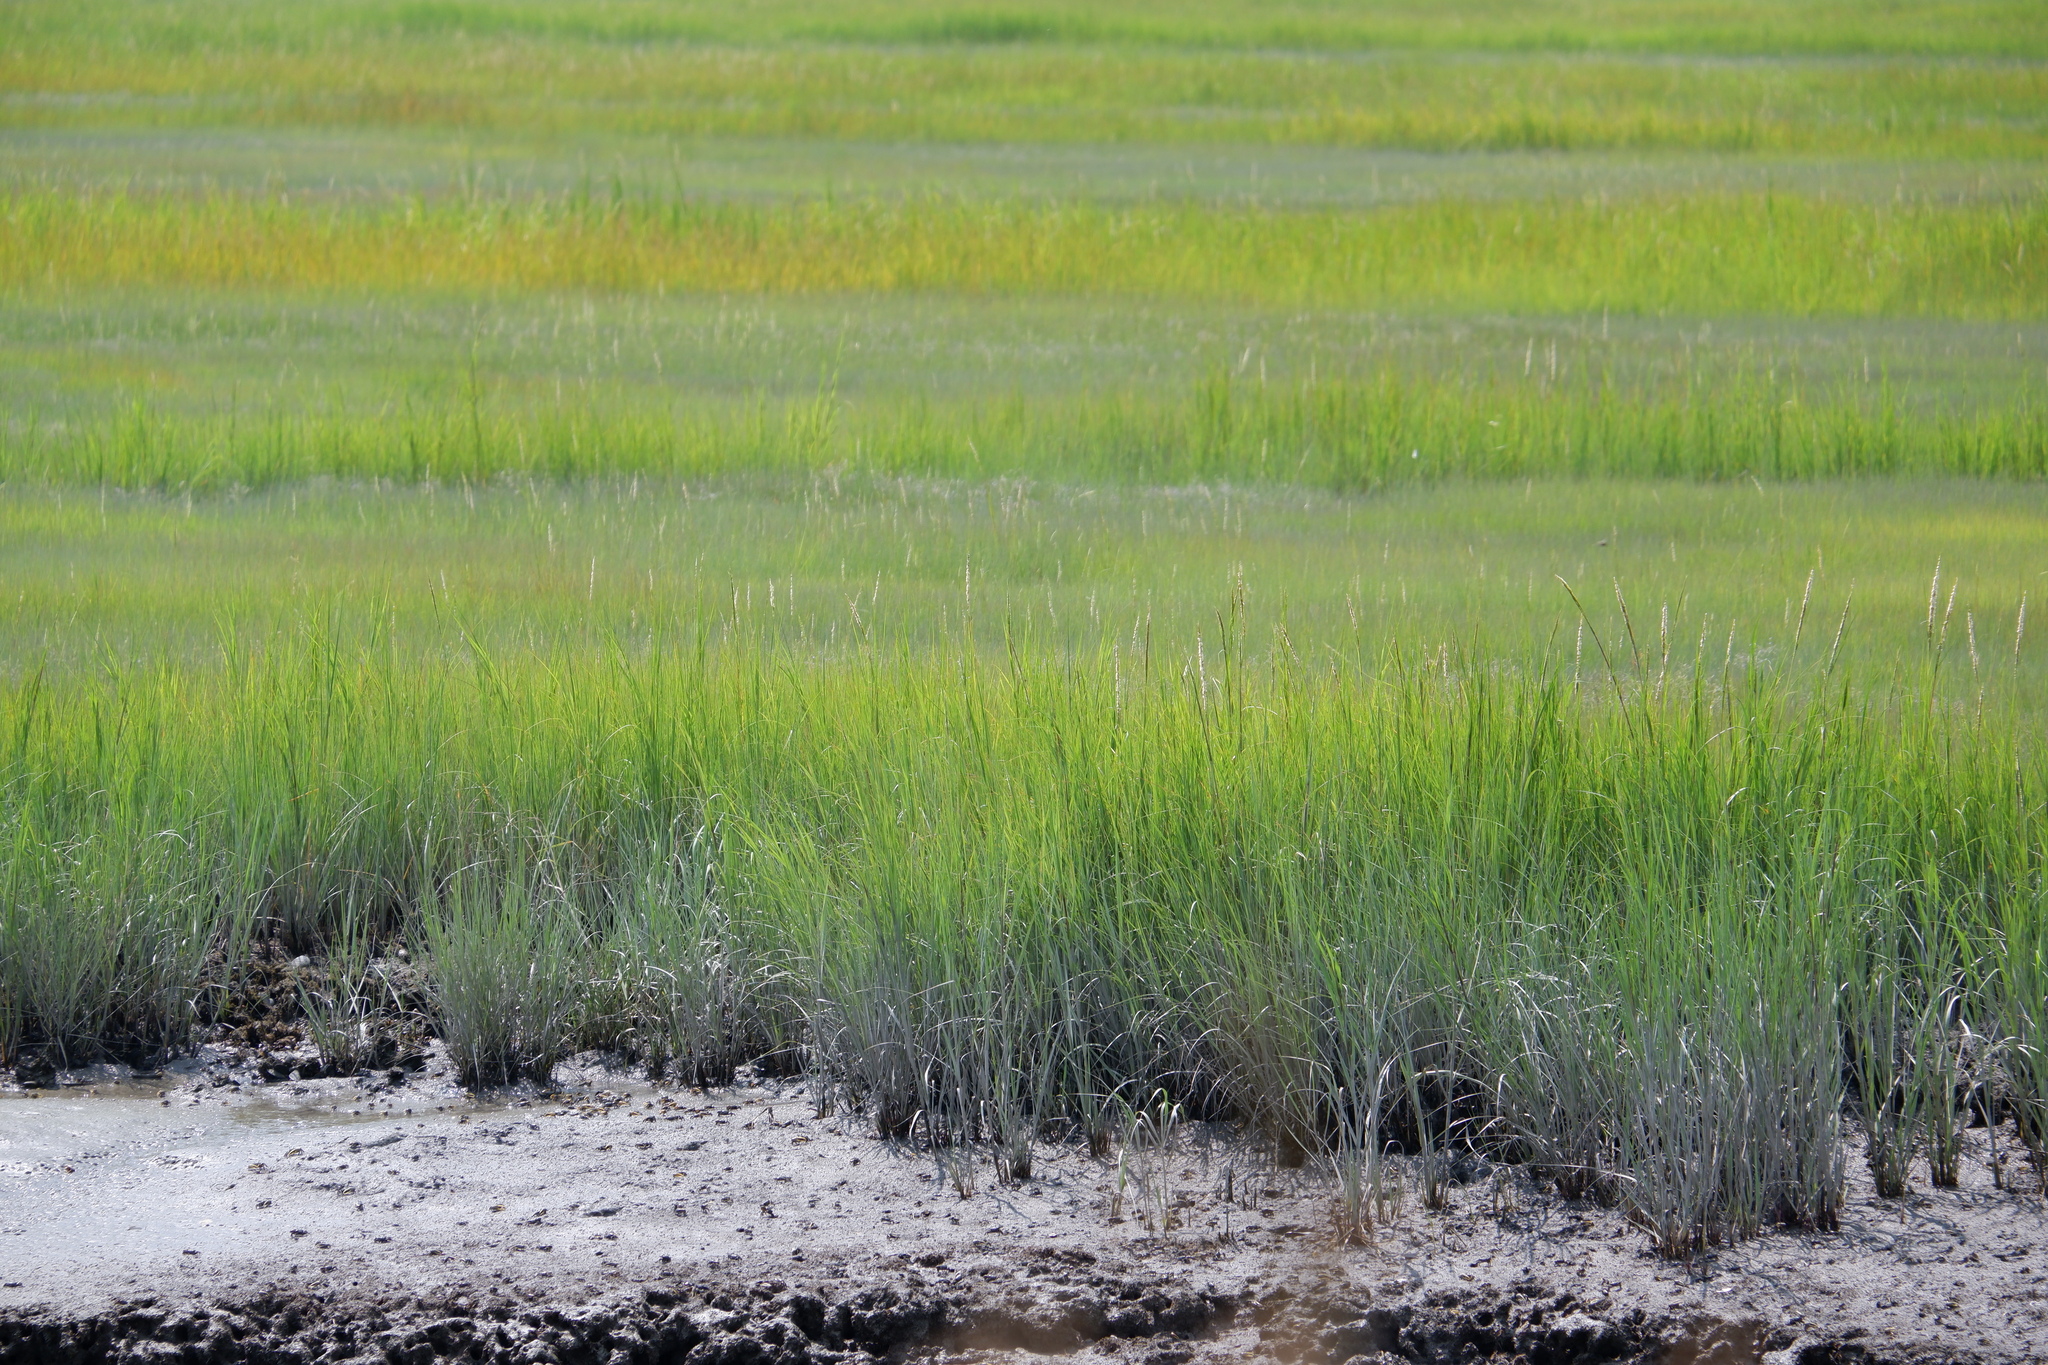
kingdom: Plantae
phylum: Tracheophyta
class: Liliopsida
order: Poales
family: Poaceae
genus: Sporobolus
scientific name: Sporobolus alterniflorus
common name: Atlantic cordgrass
